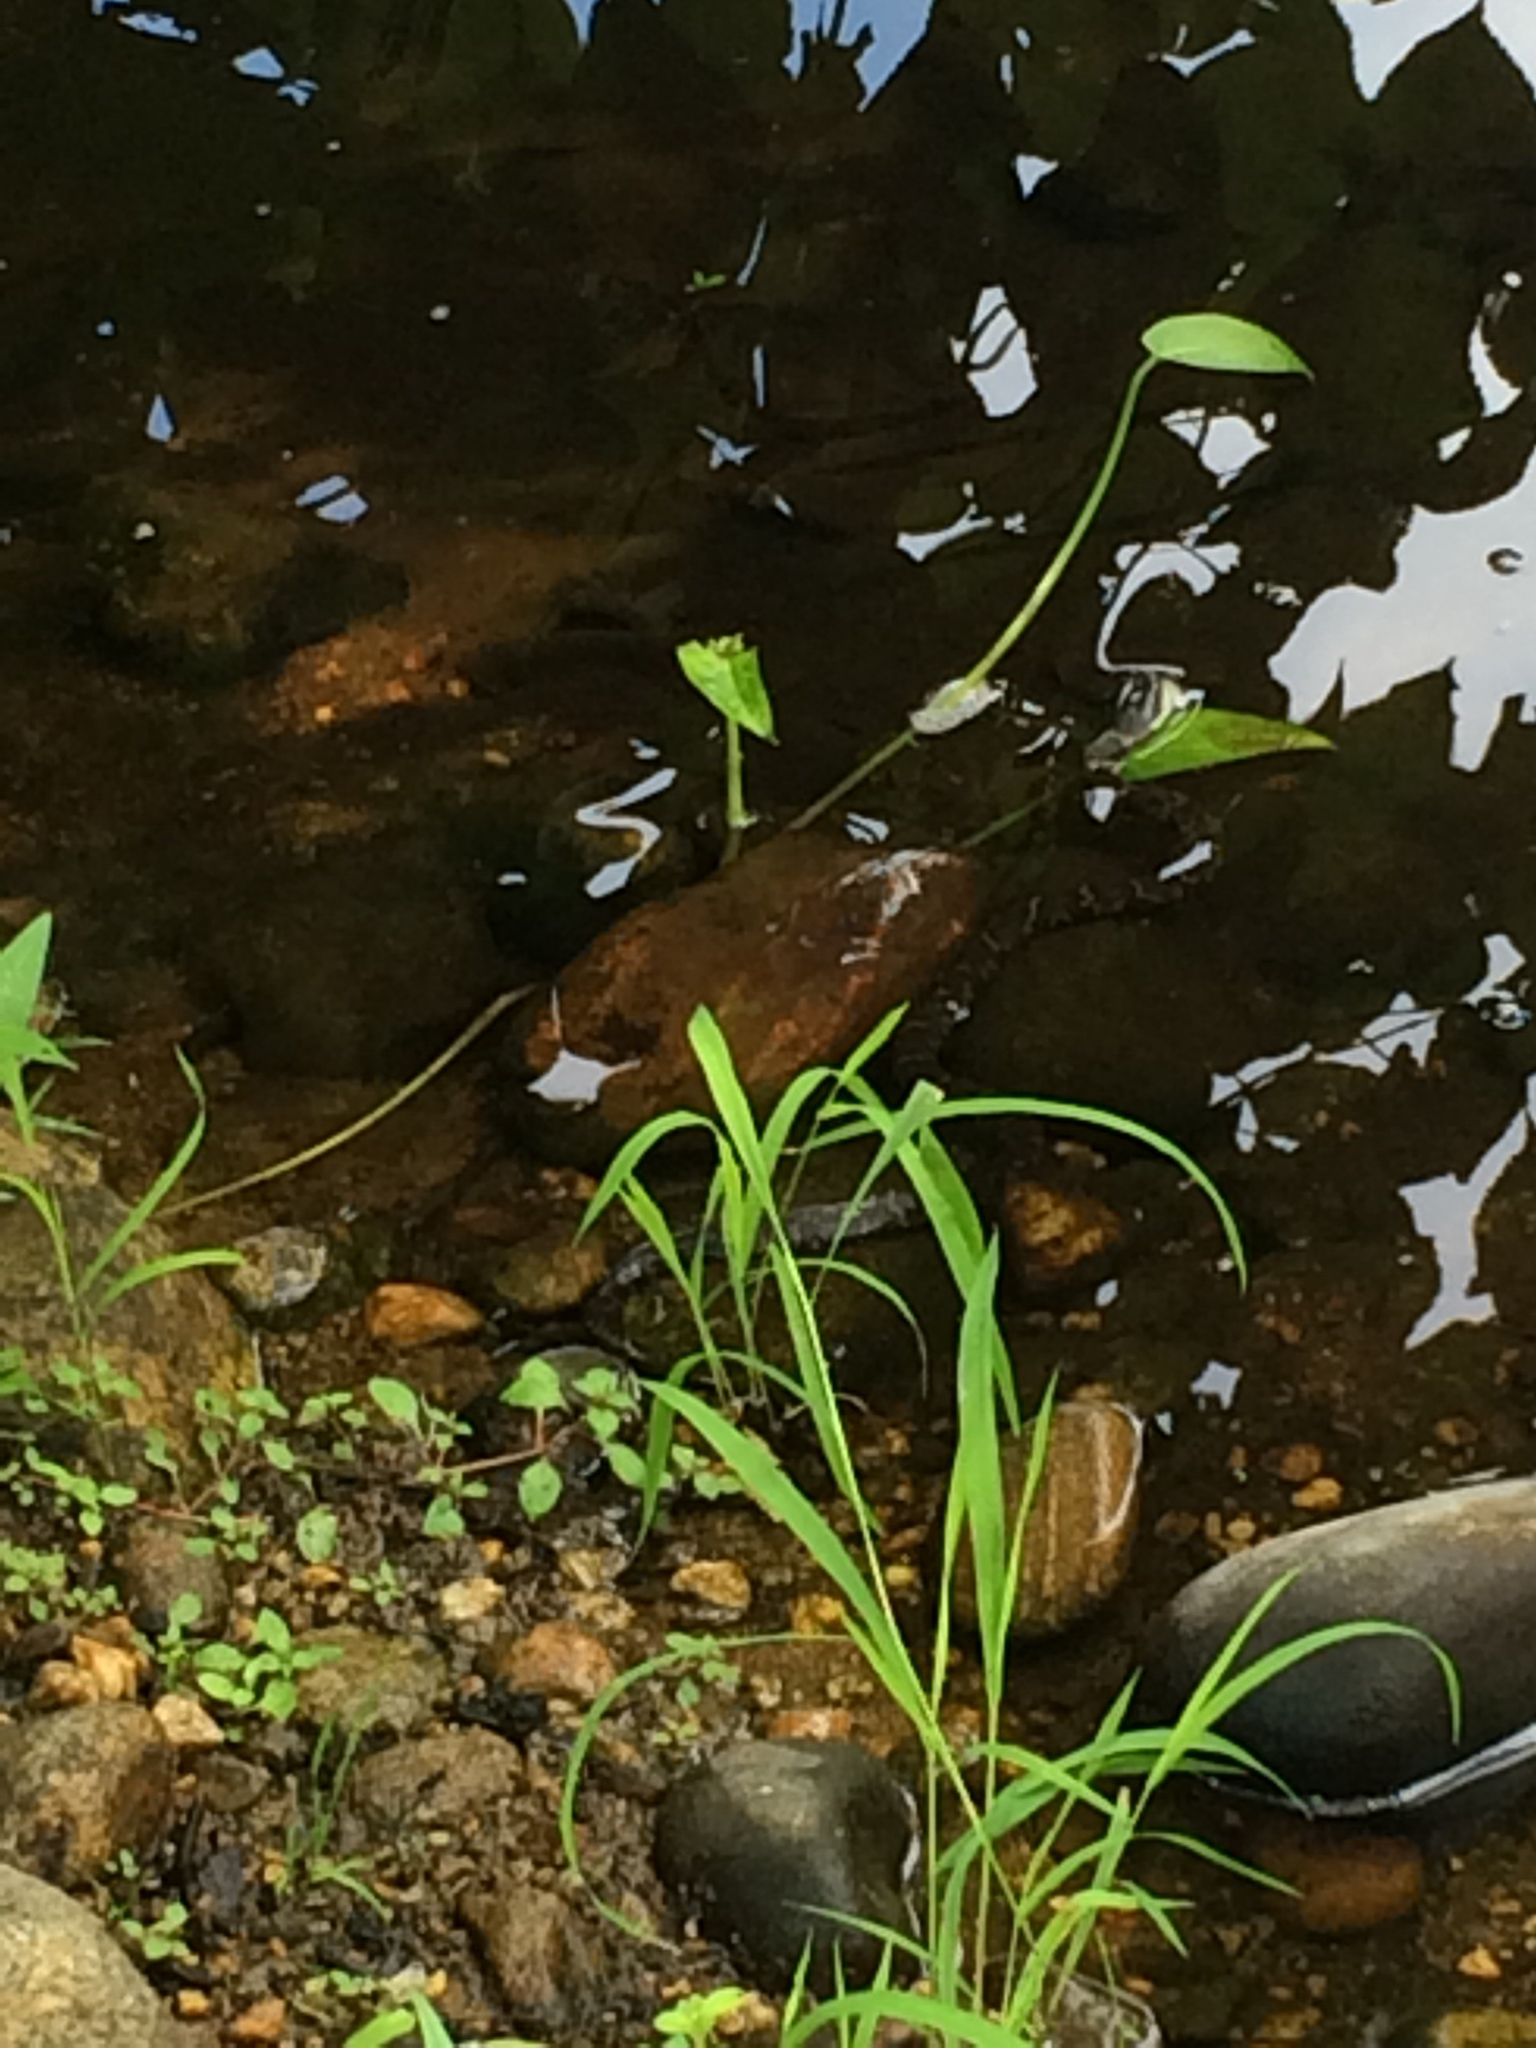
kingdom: Animalia
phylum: Chordata
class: Squamata
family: Colubridae
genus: Nerodia
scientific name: Nerodia sipedon
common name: Northern water snake
